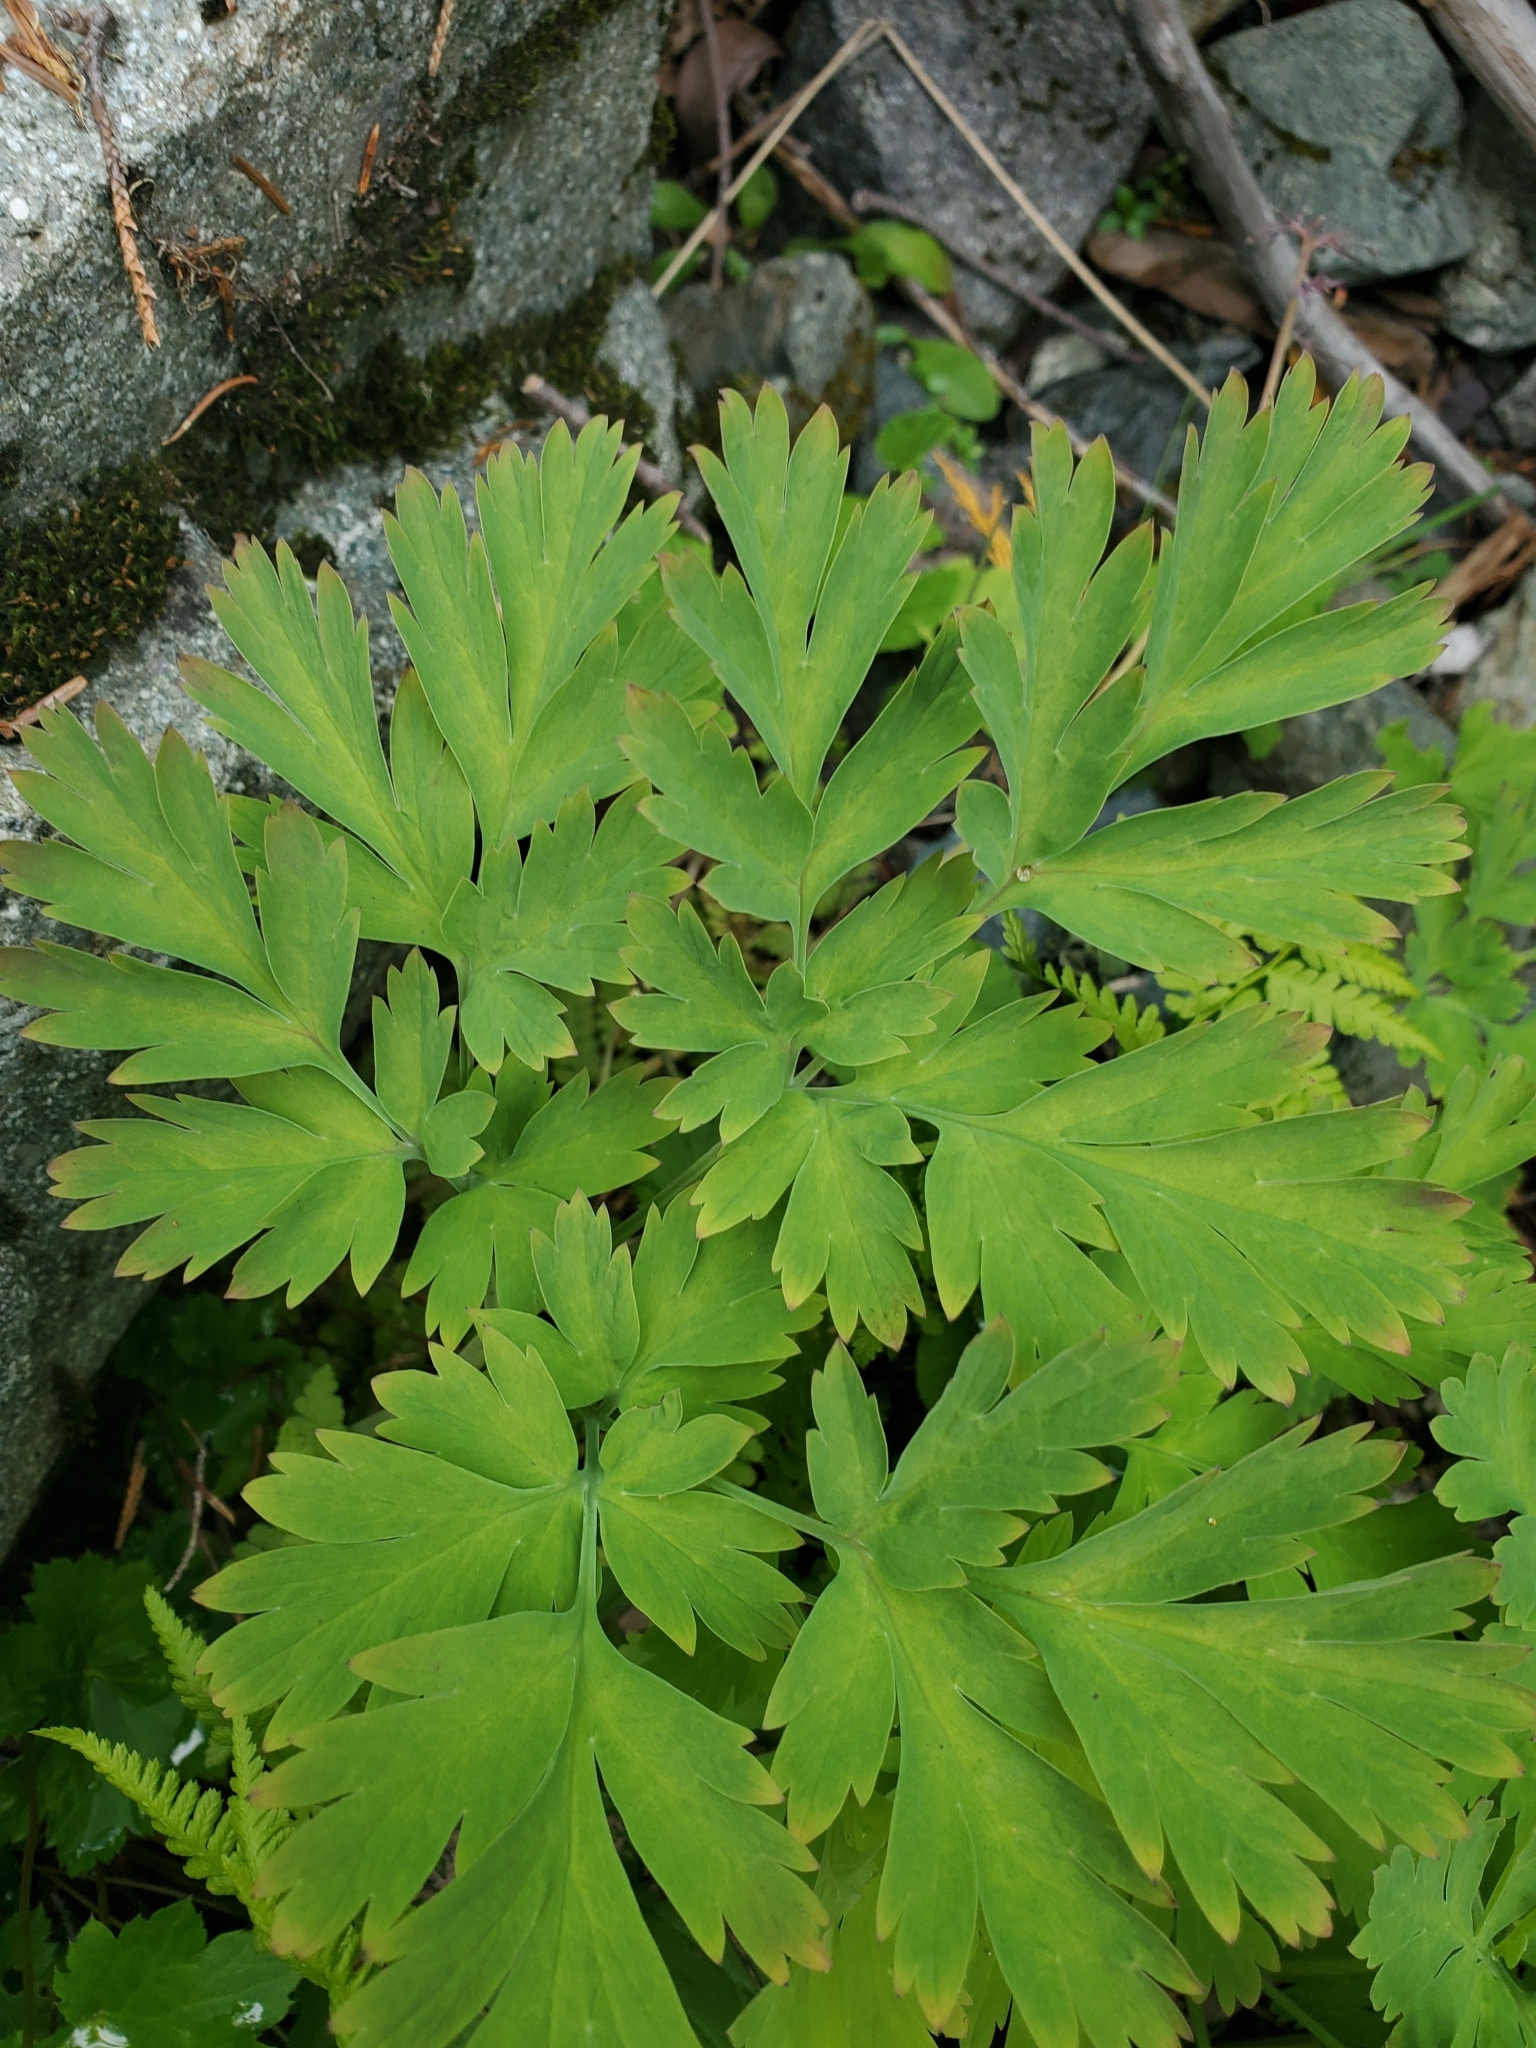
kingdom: Plantae
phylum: Tracheophyta
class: Magnoliopsida
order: Ranunculales
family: Papaveraceae
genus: Dicentra
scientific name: Dicentra formosa
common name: Bleeding-heart
